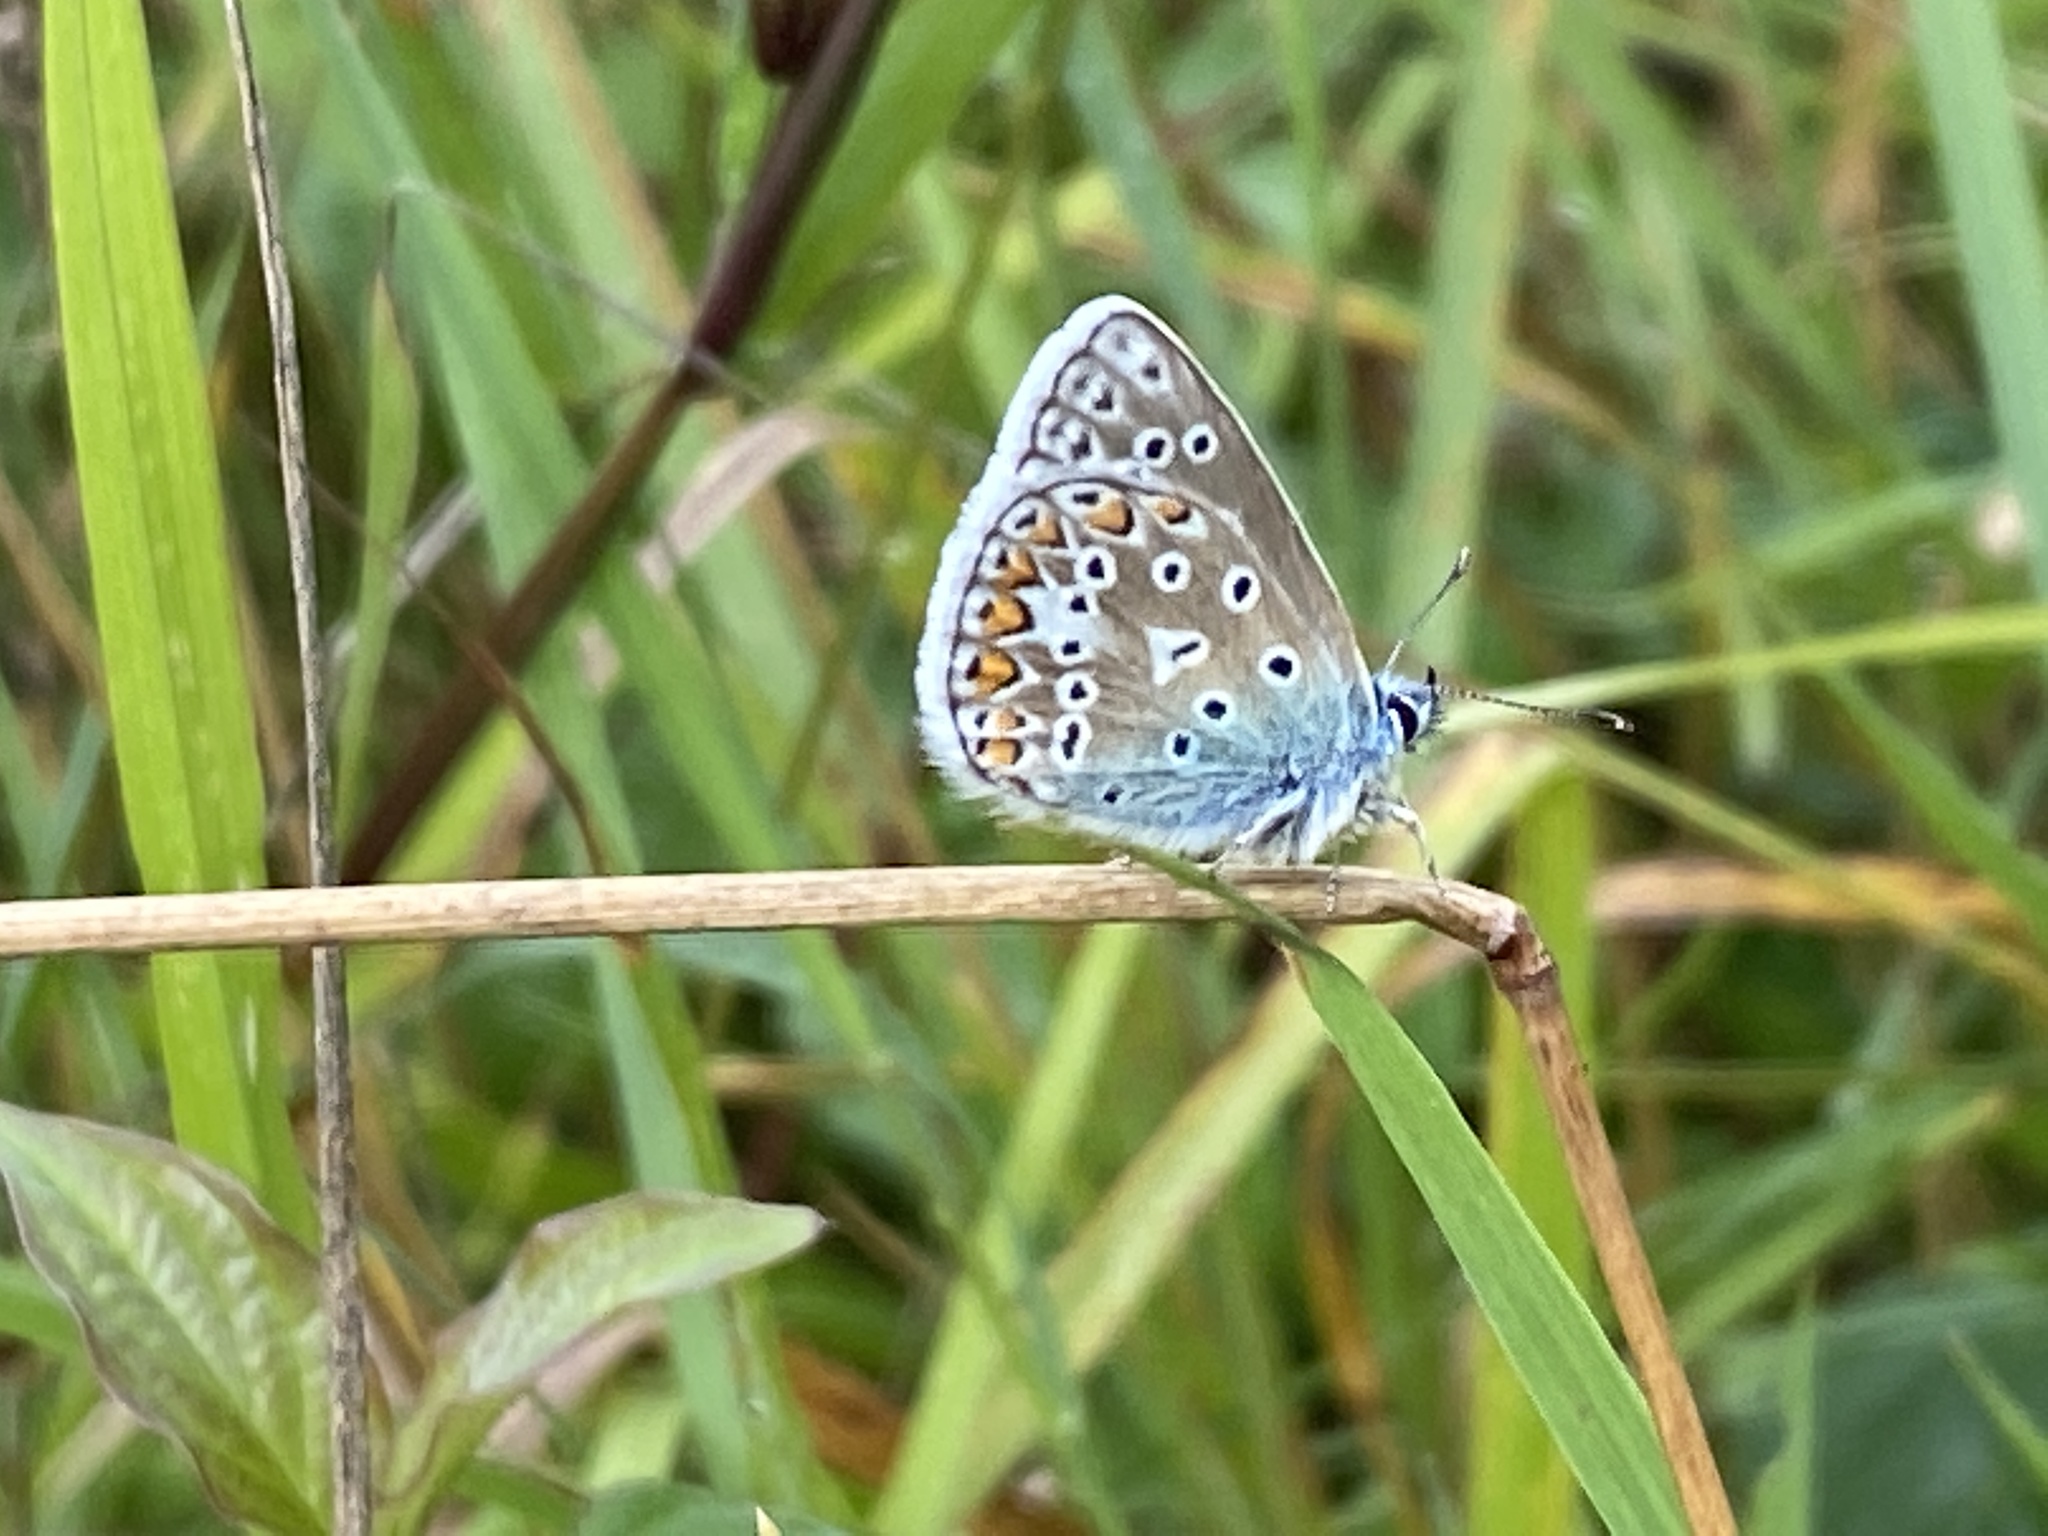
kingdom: Animalia
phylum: Arthropoda
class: Insecta
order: Lepidoptera
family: Lycaenidae
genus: Polyommatus
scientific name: Polyommatus icarus
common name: Common blue
